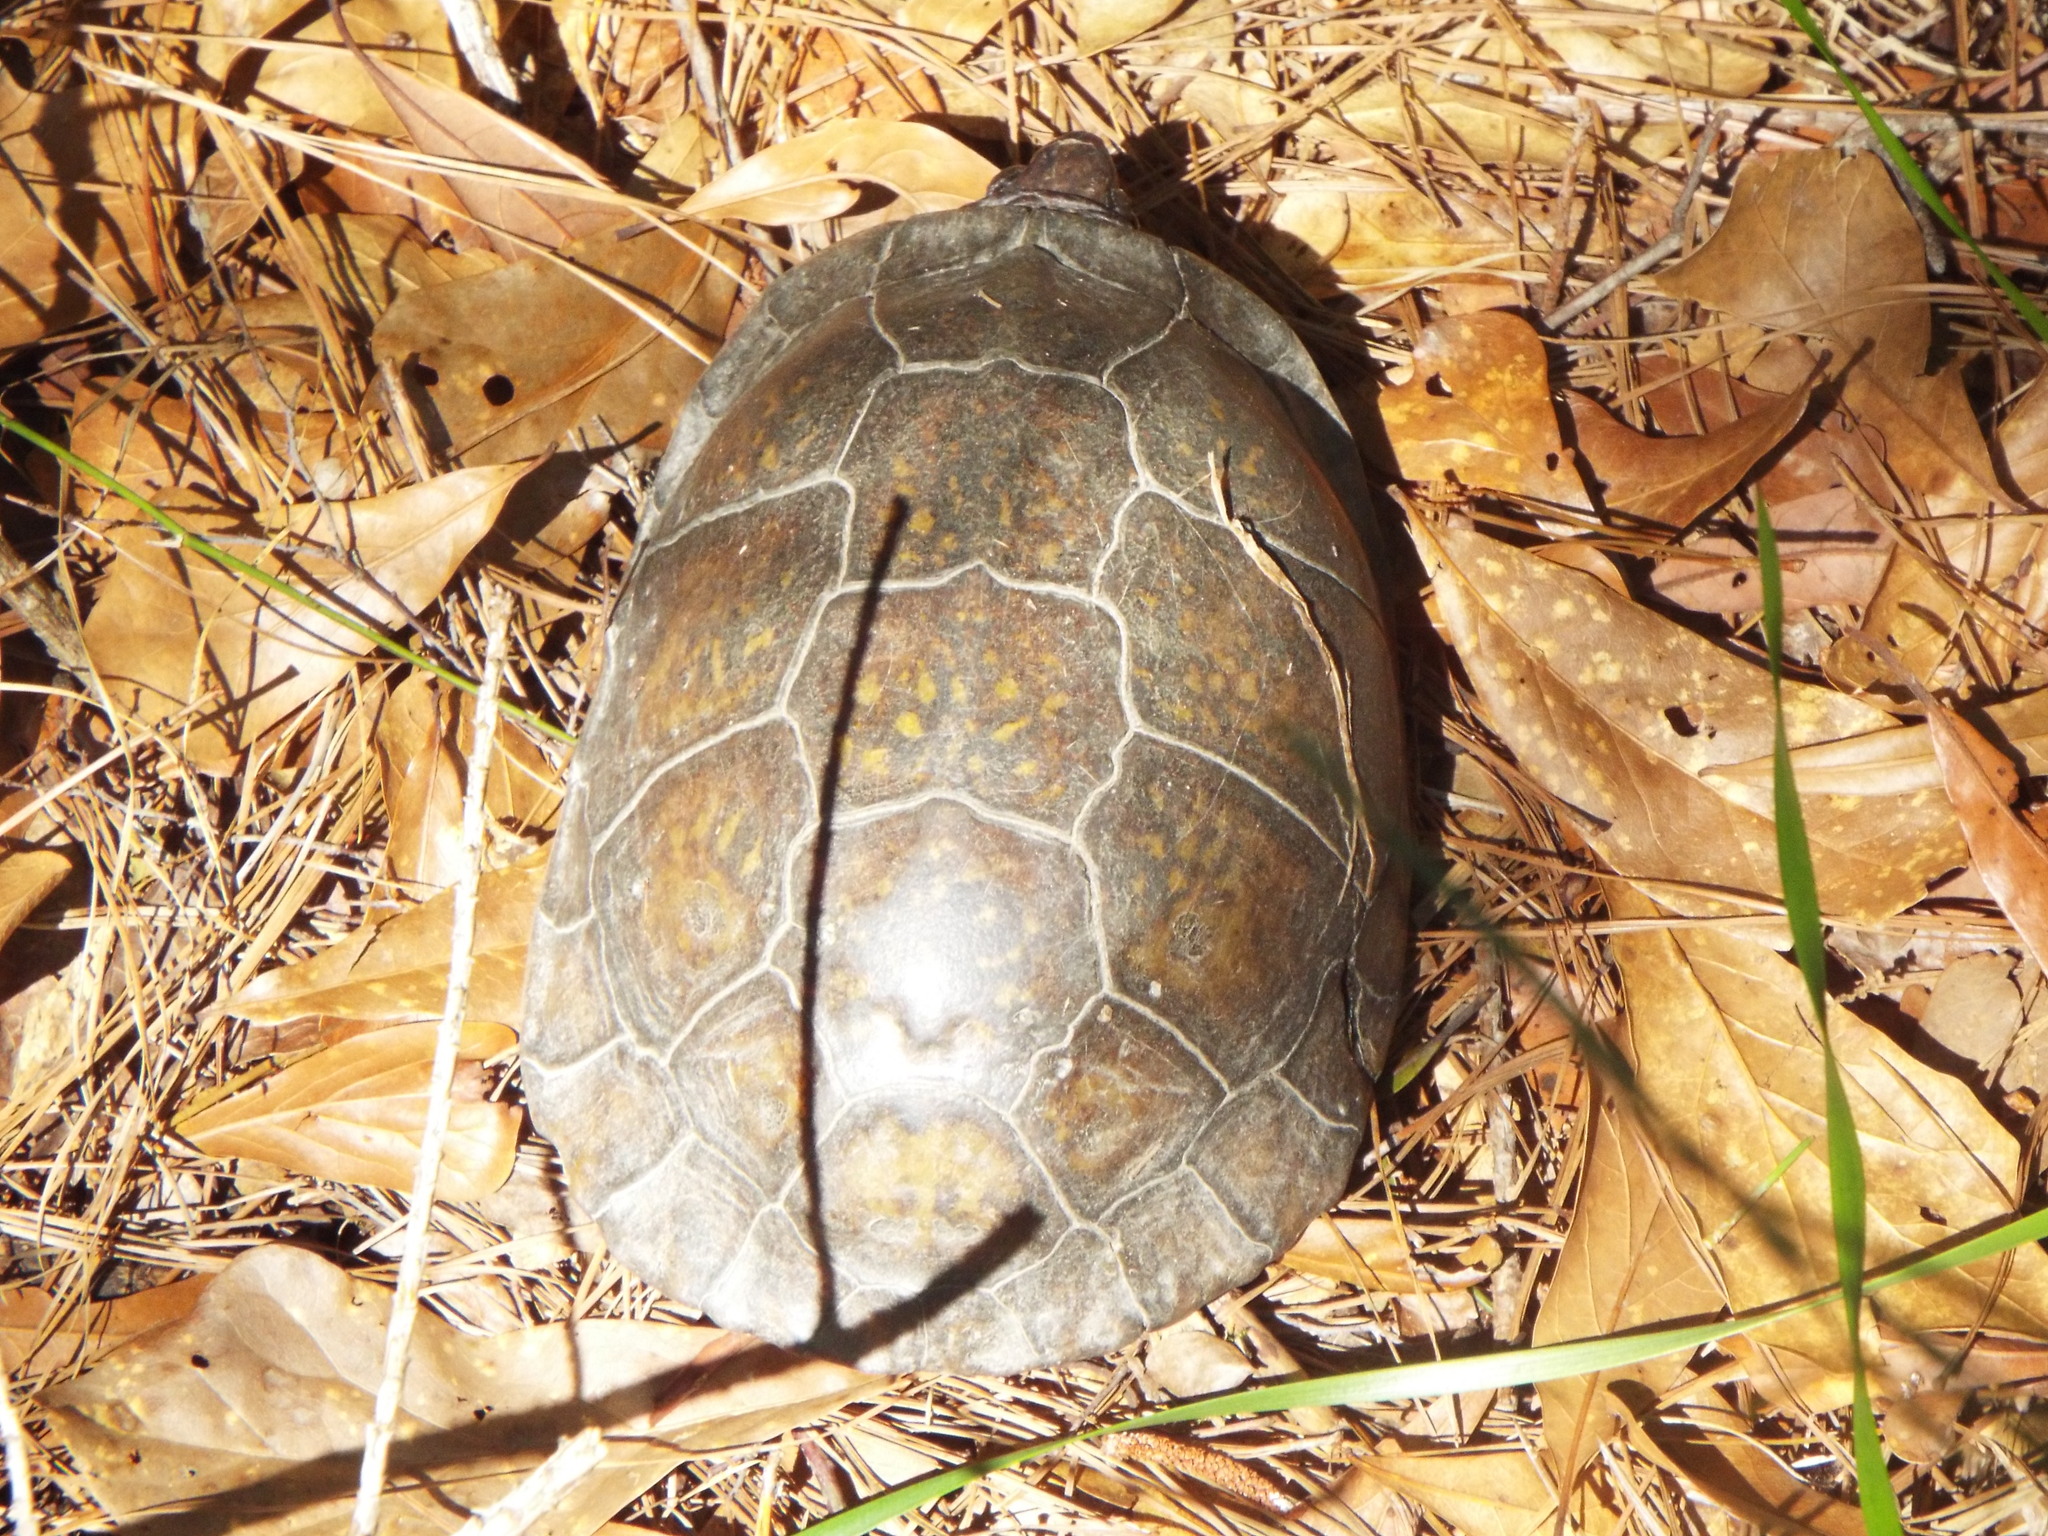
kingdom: Animalia
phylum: Chordata
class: Testudines
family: Emydidae
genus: Terrapene
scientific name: Terrapene carolina
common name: Common box turtle
